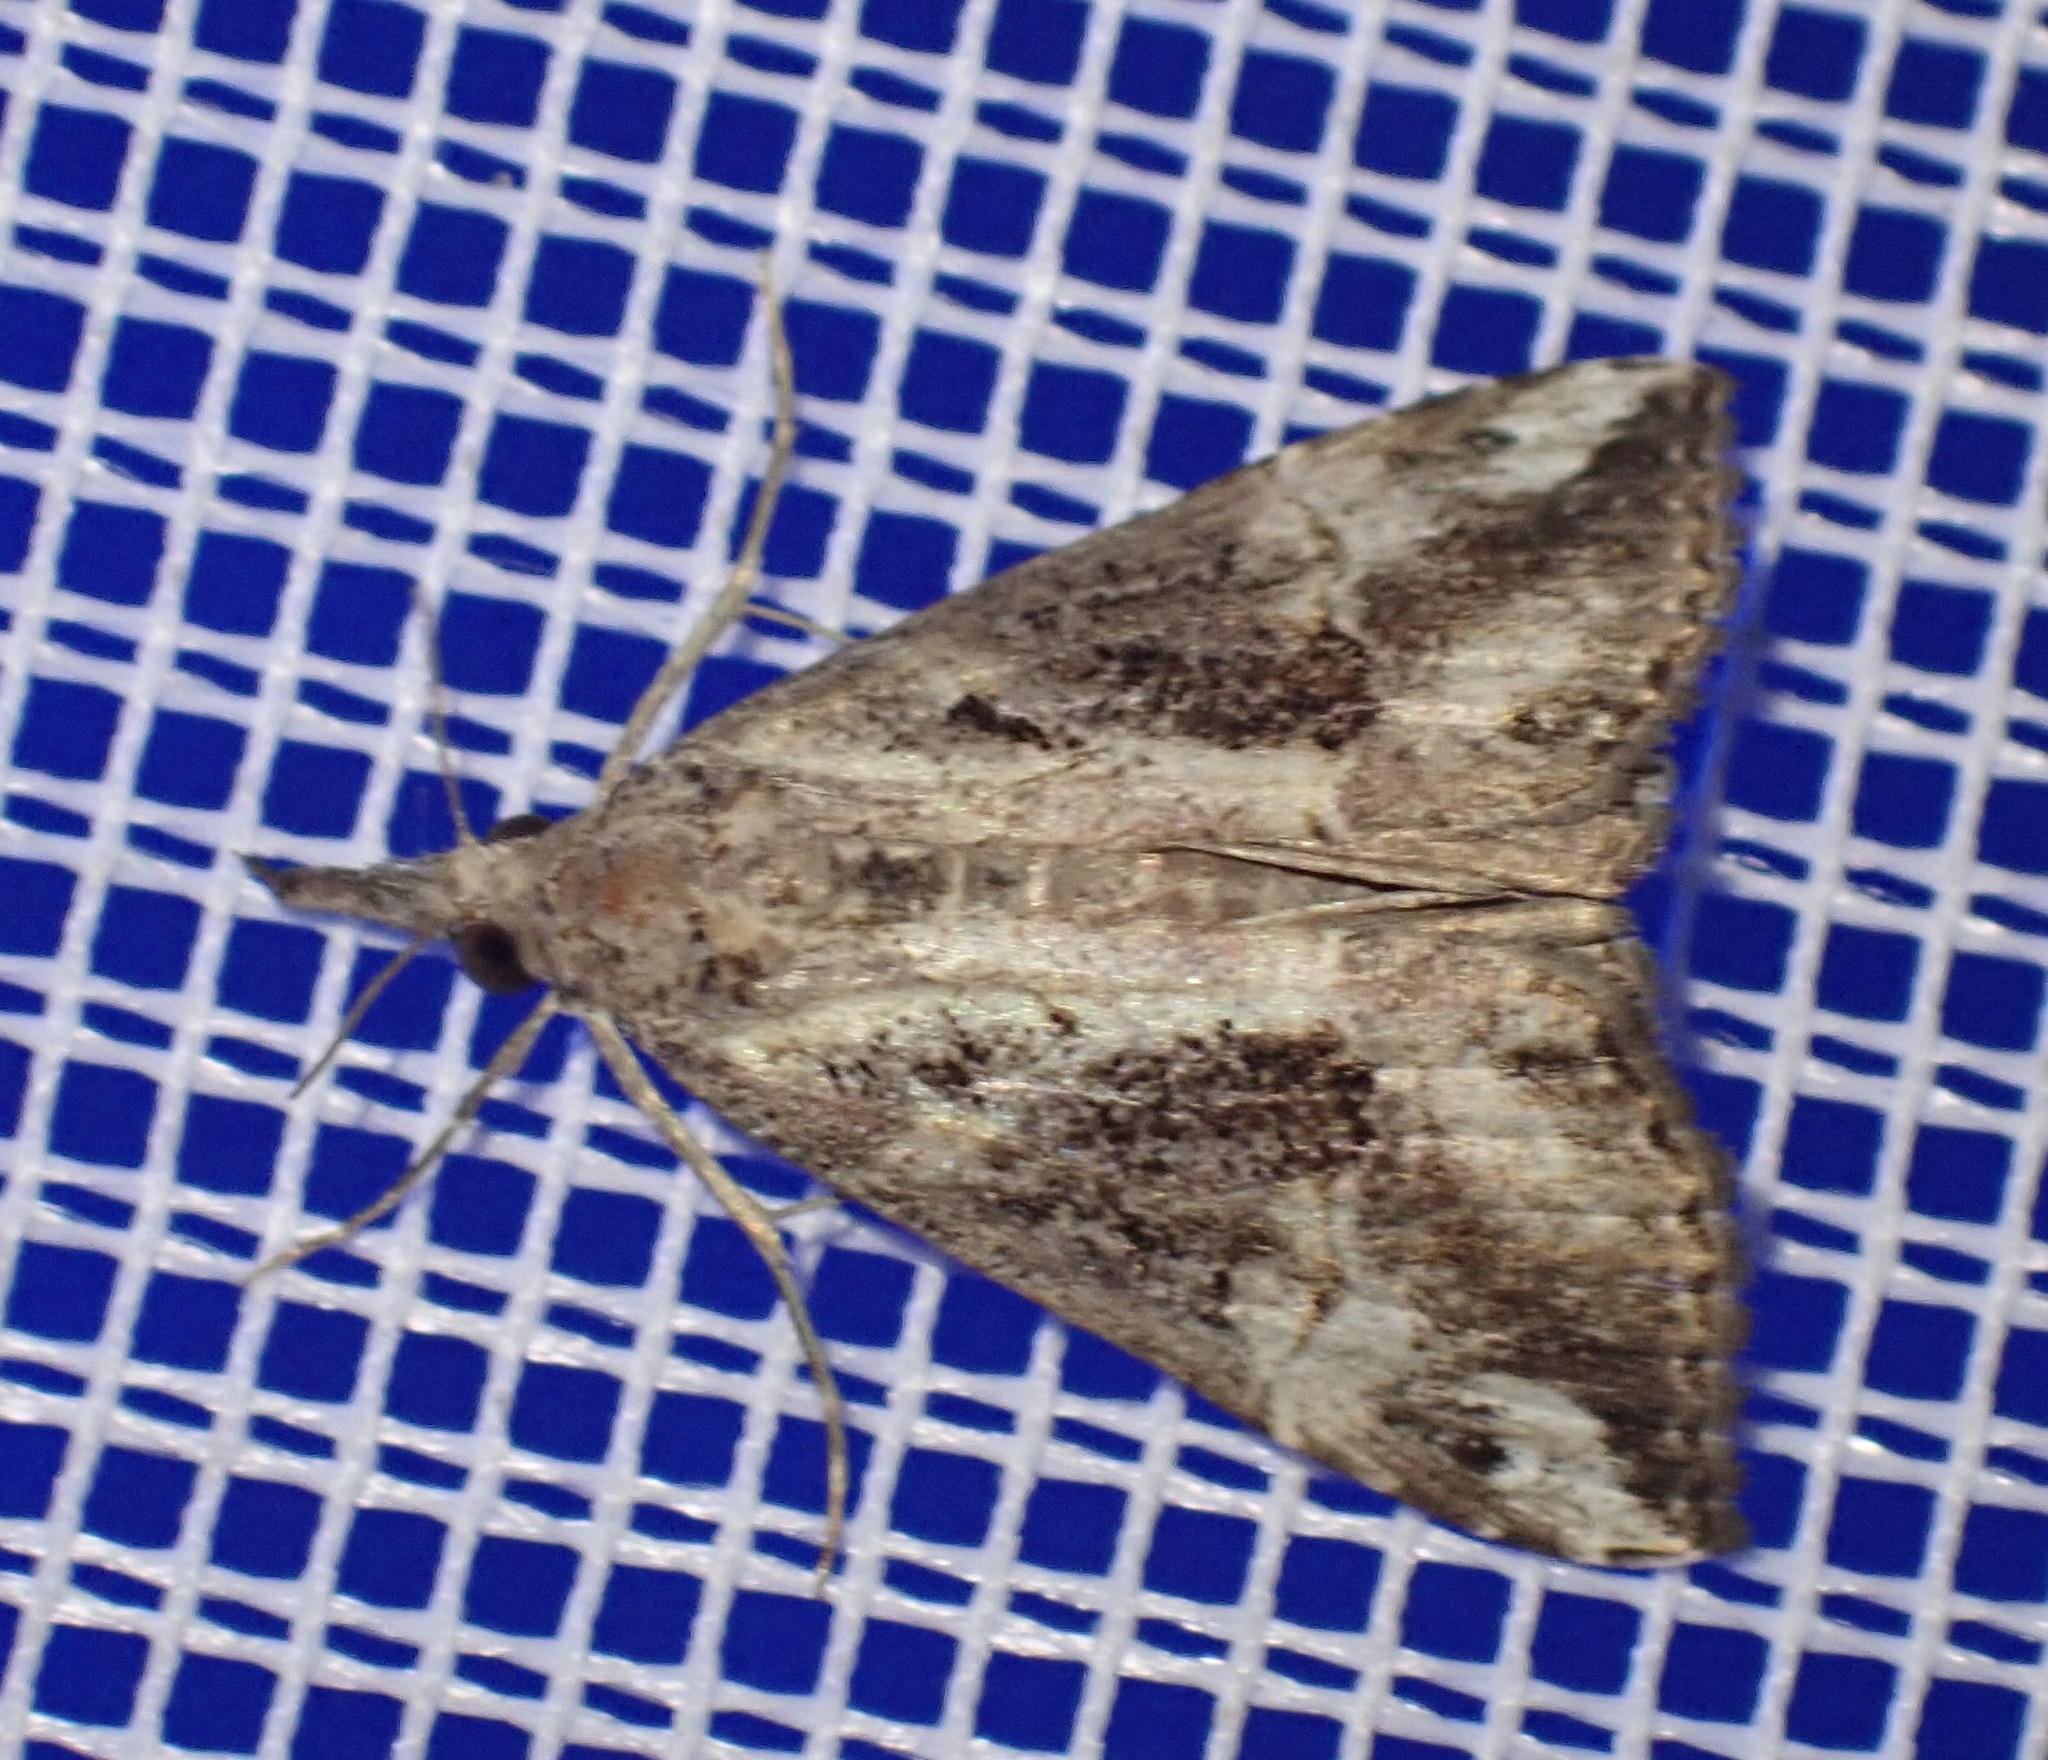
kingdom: Animalia
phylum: Arthropoda
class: Insecta
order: Lepidoptera
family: Erebidae
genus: Hypena
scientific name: Hypena commixtalis
